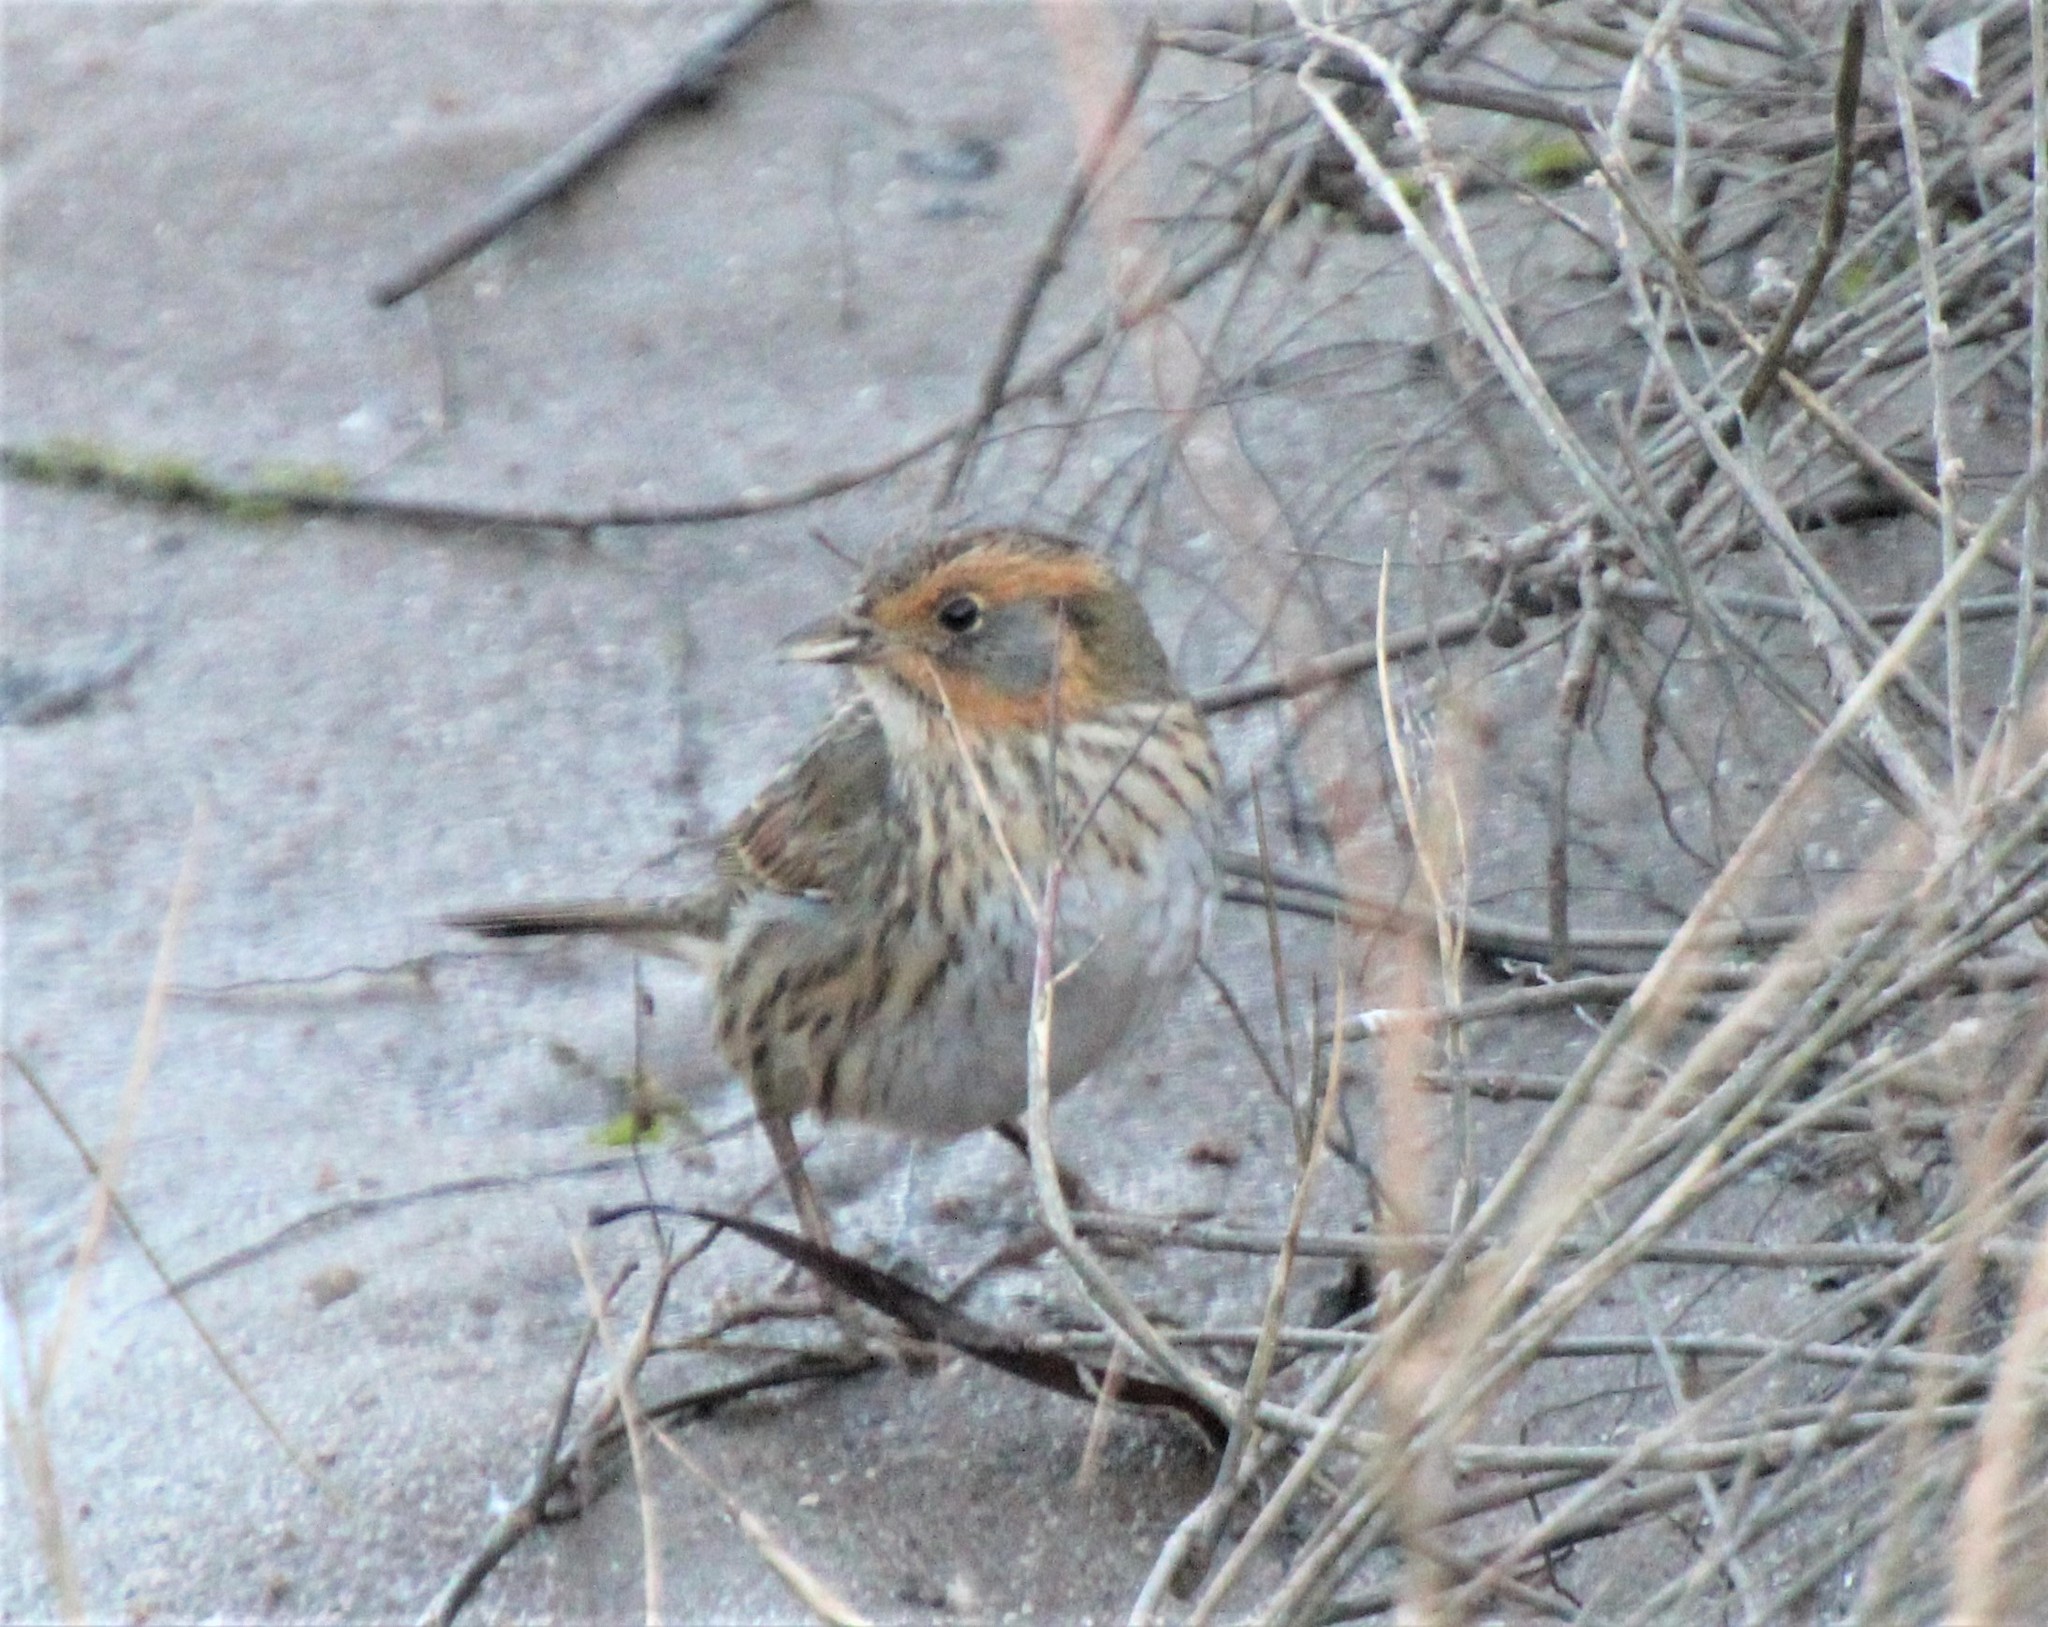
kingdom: Animalia
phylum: Chordata
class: Aves
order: Passeriformes
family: Passerellidae
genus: Ammospiza
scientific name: Ammospiza caudacuta
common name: Saltmarsh sparrow
